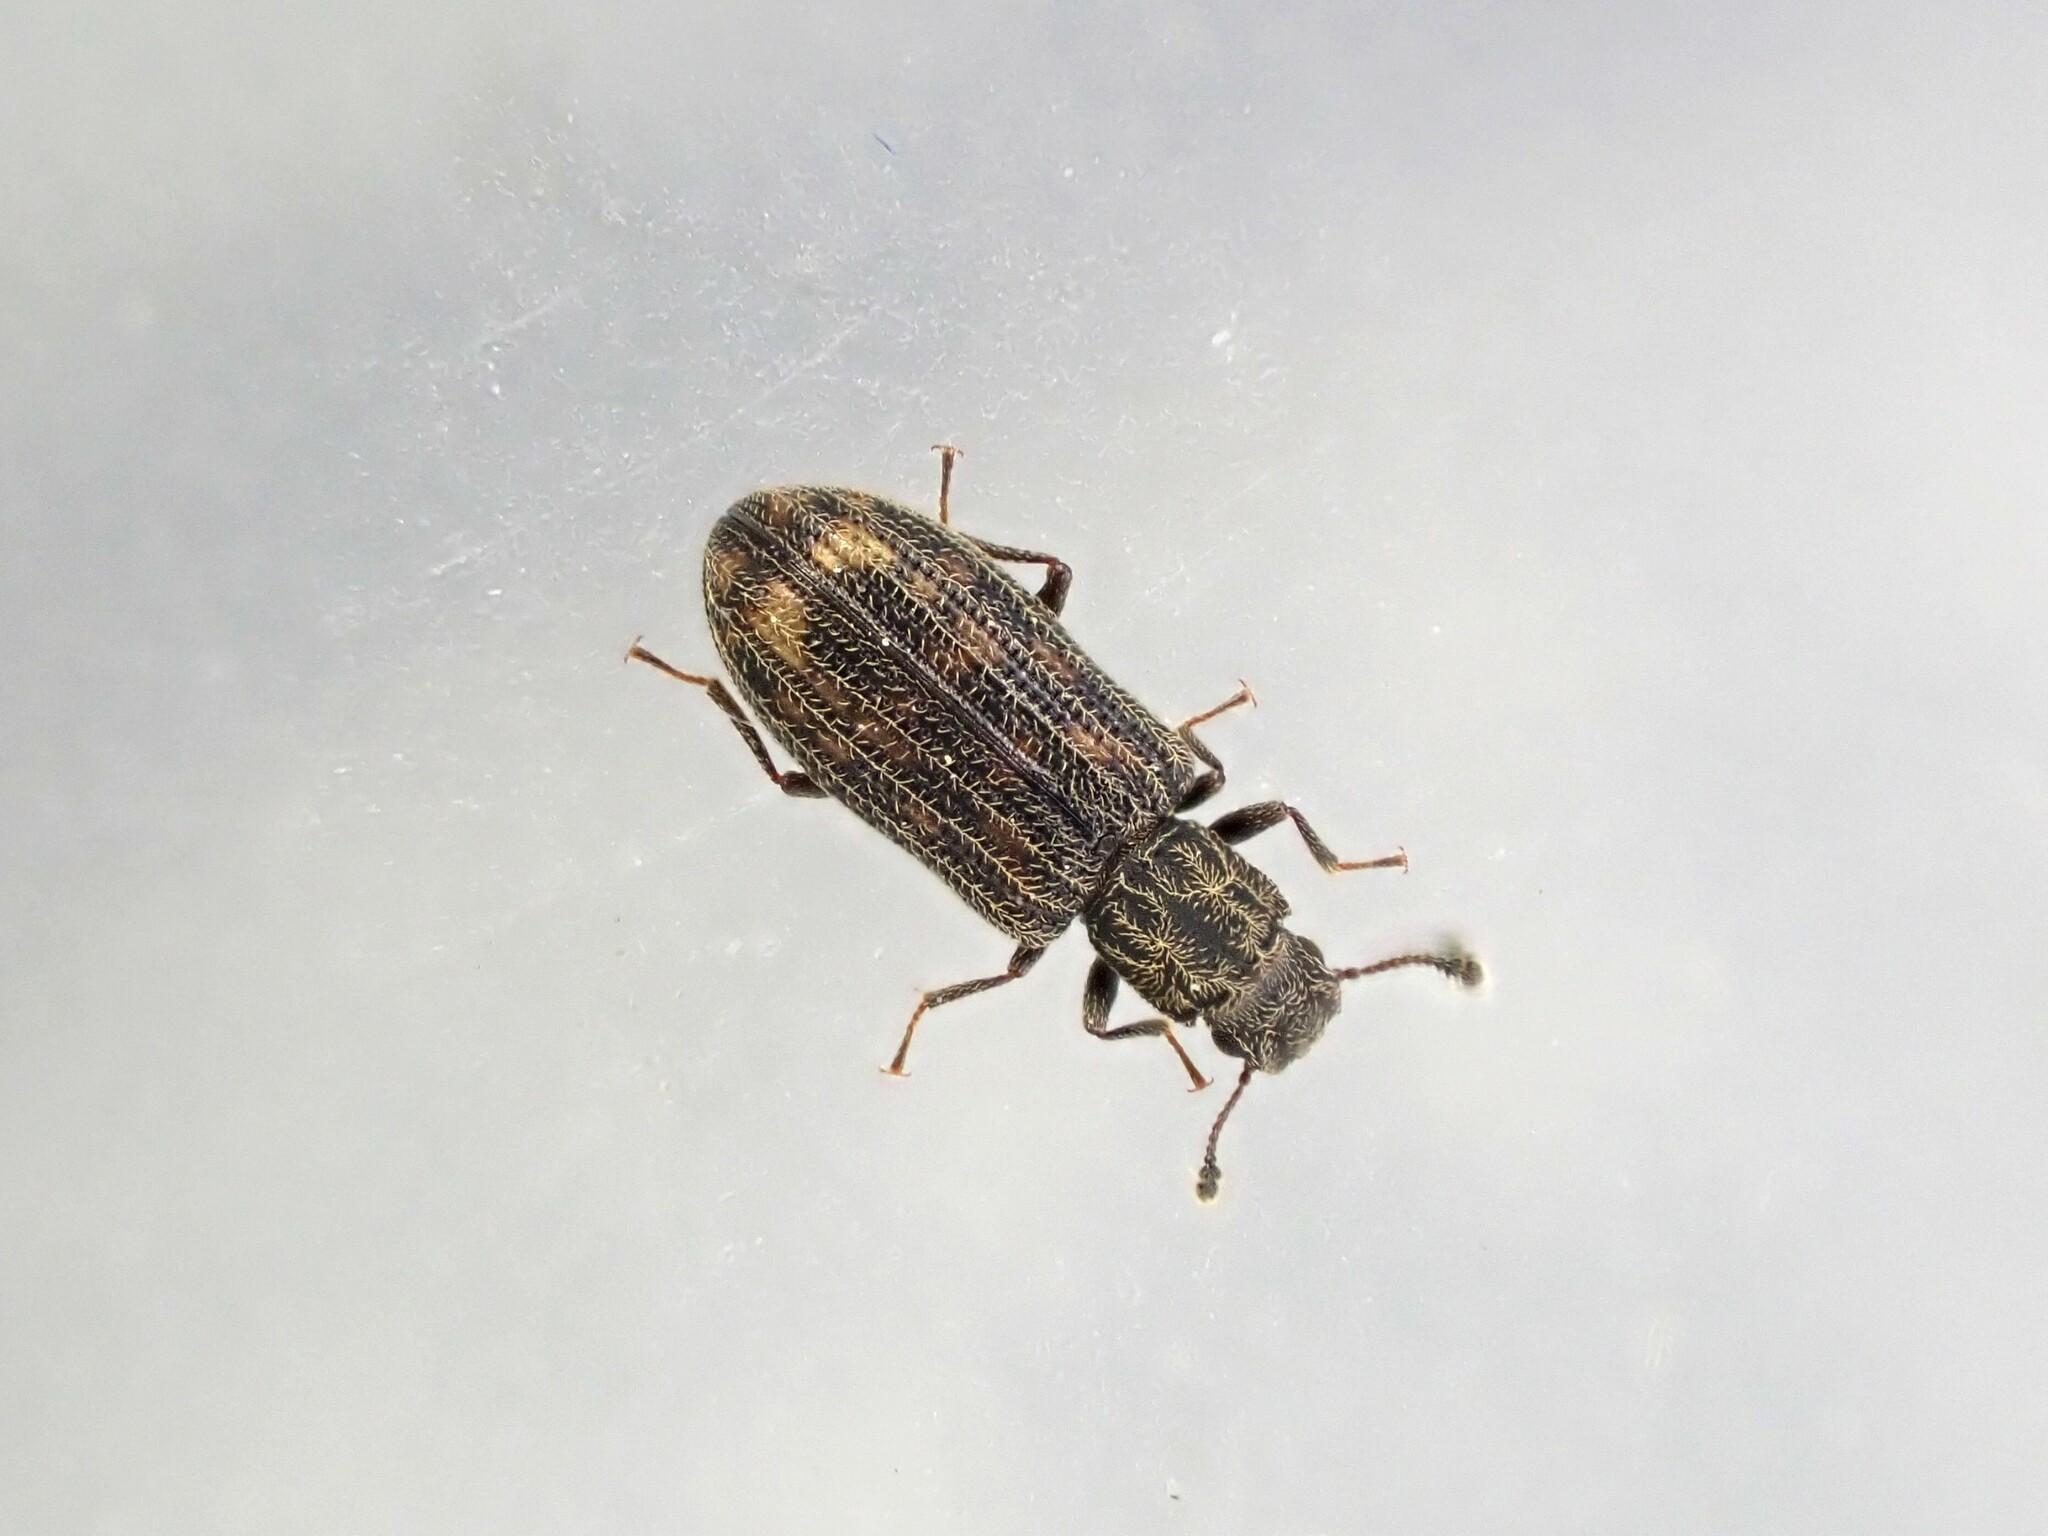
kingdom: Animalia
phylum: Arthropoda
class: Insecta
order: Coleoptera
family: Zopheridae
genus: Bitoma
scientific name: Bitoma
